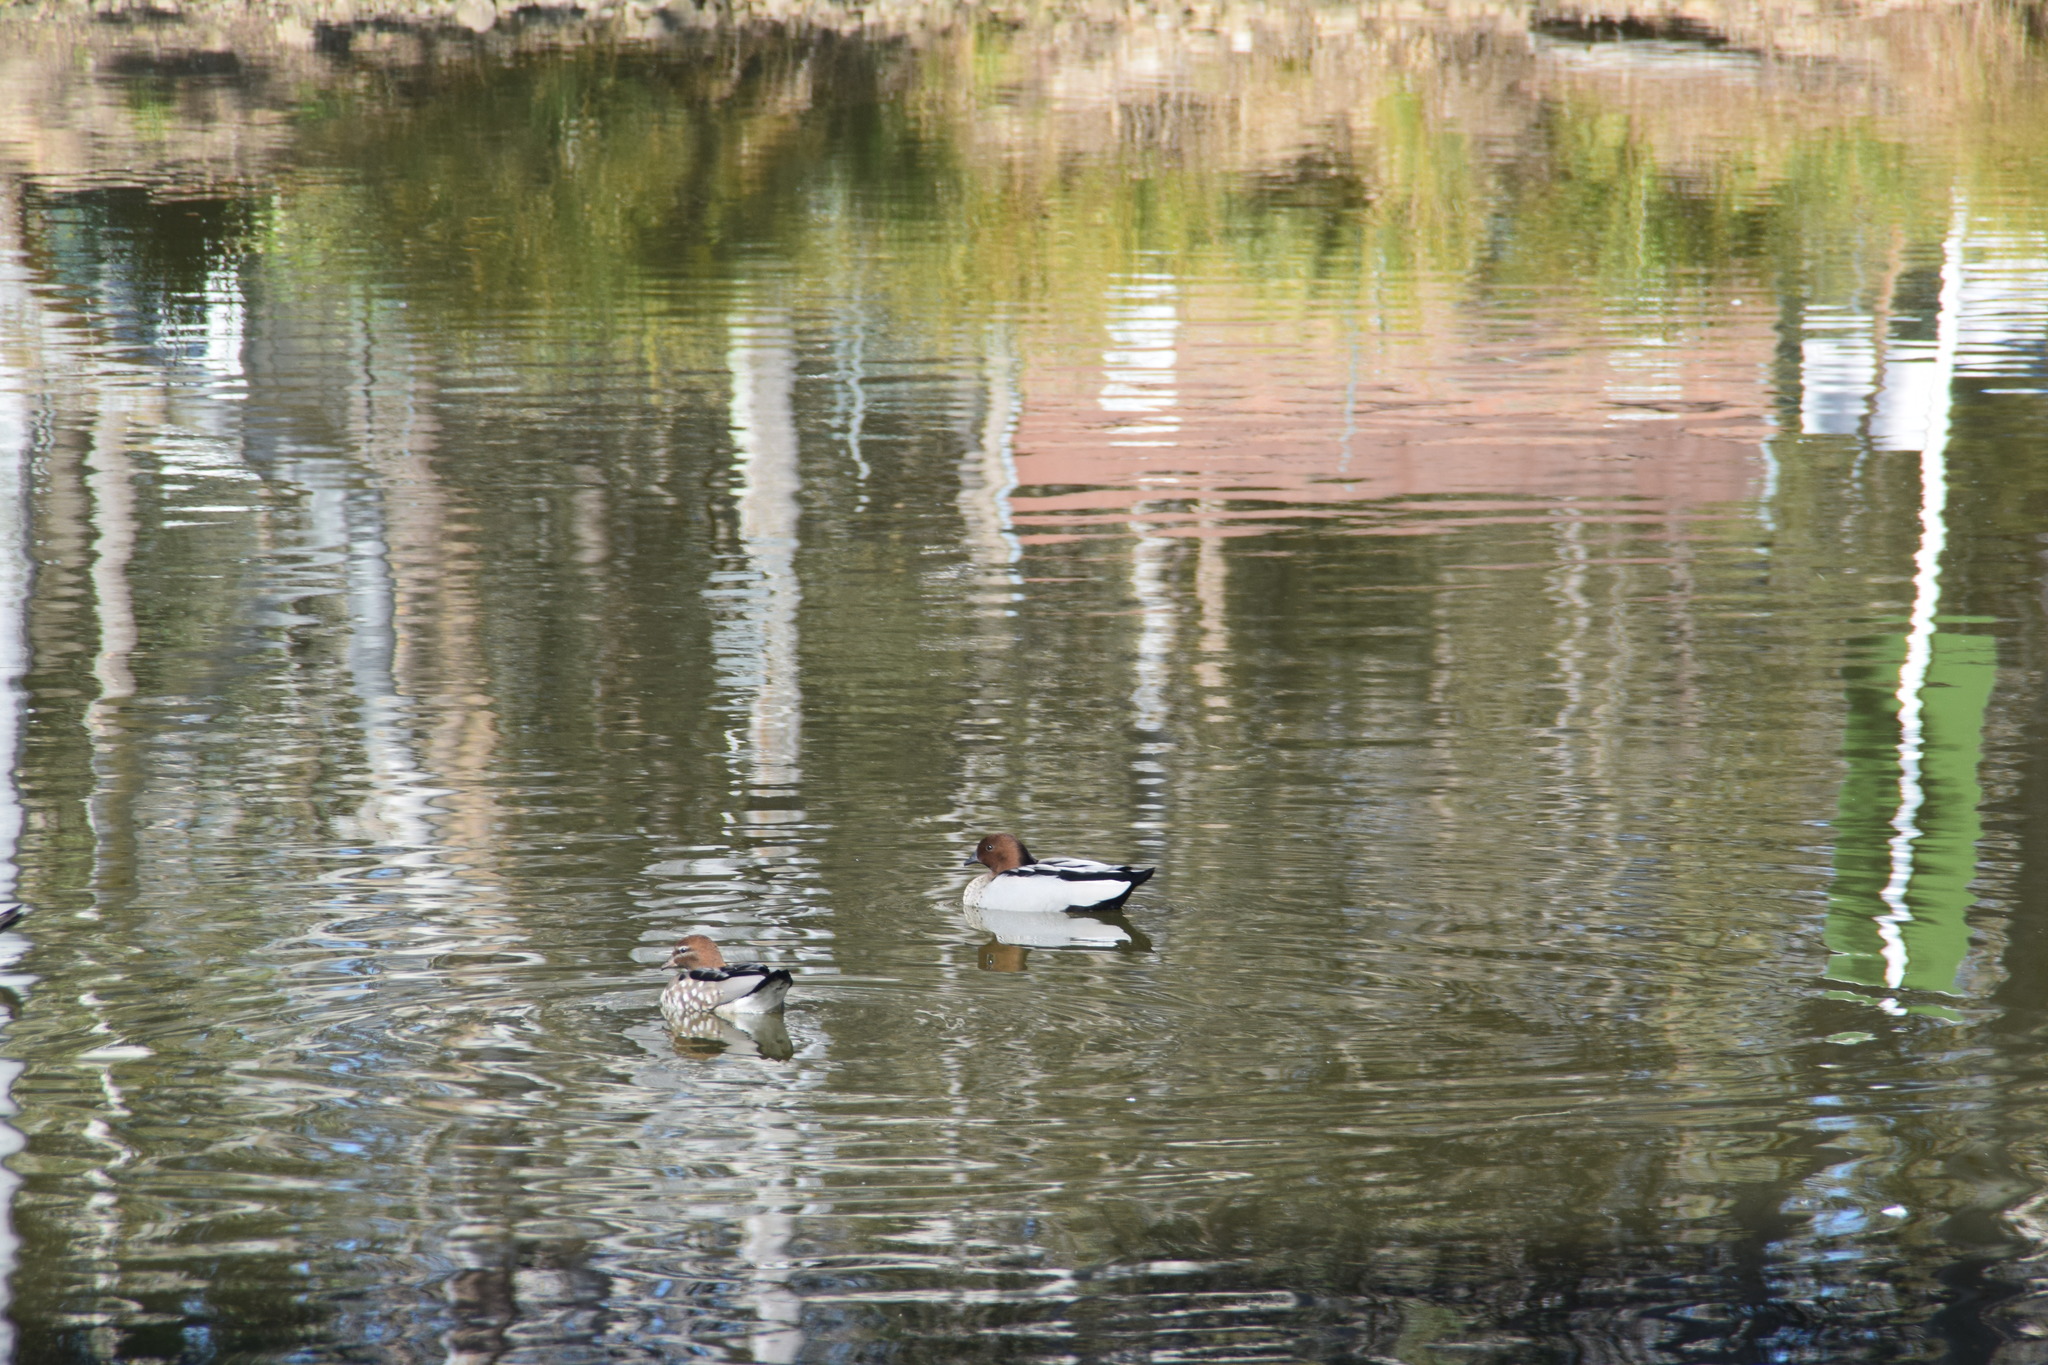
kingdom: Animalia
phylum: Chordata
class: Aves
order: Anseriformes
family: Anatidae
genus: Chenonetta
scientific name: Chenonetta jubata
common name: Maned duck
